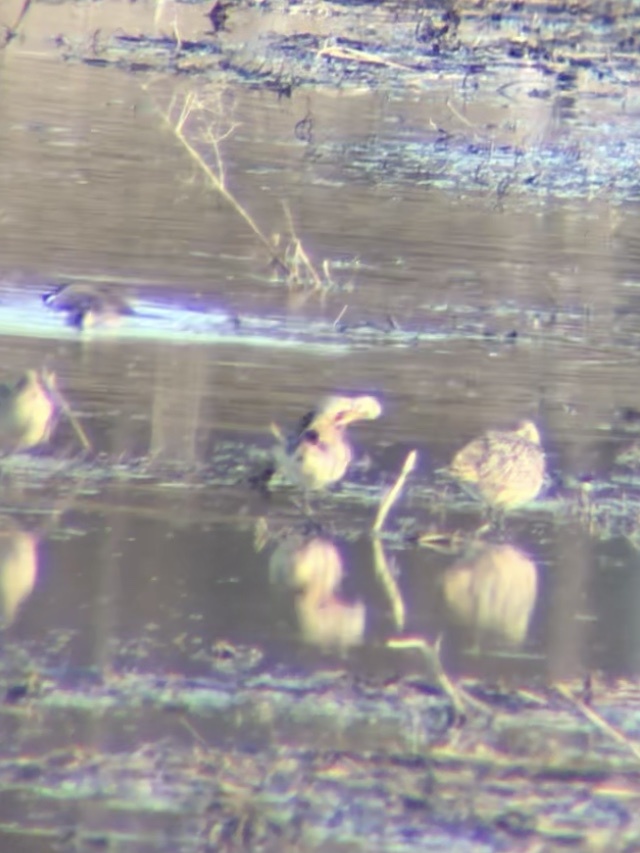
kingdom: Animalia
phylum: Chordata
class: Aves
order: Charadriiformes
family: Scolopacidae
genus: Limosa
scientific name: Limosa fedoa
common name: Marbled godwit
